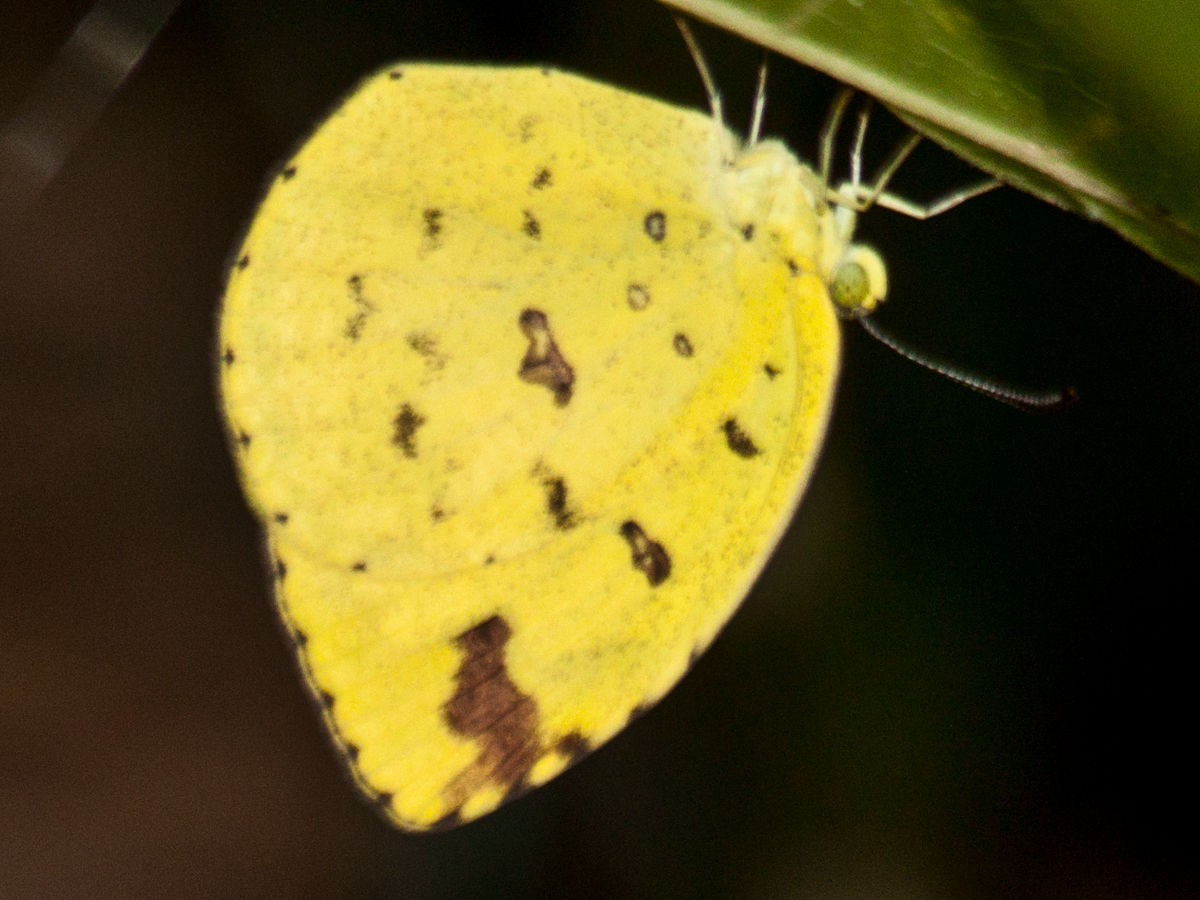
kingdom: Animalia
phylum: Arthropoda
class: Insecta
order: Lepidoptera
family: Pieridae
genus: Eurema
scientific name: Eurema hecabe
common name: Pale grass yellow
